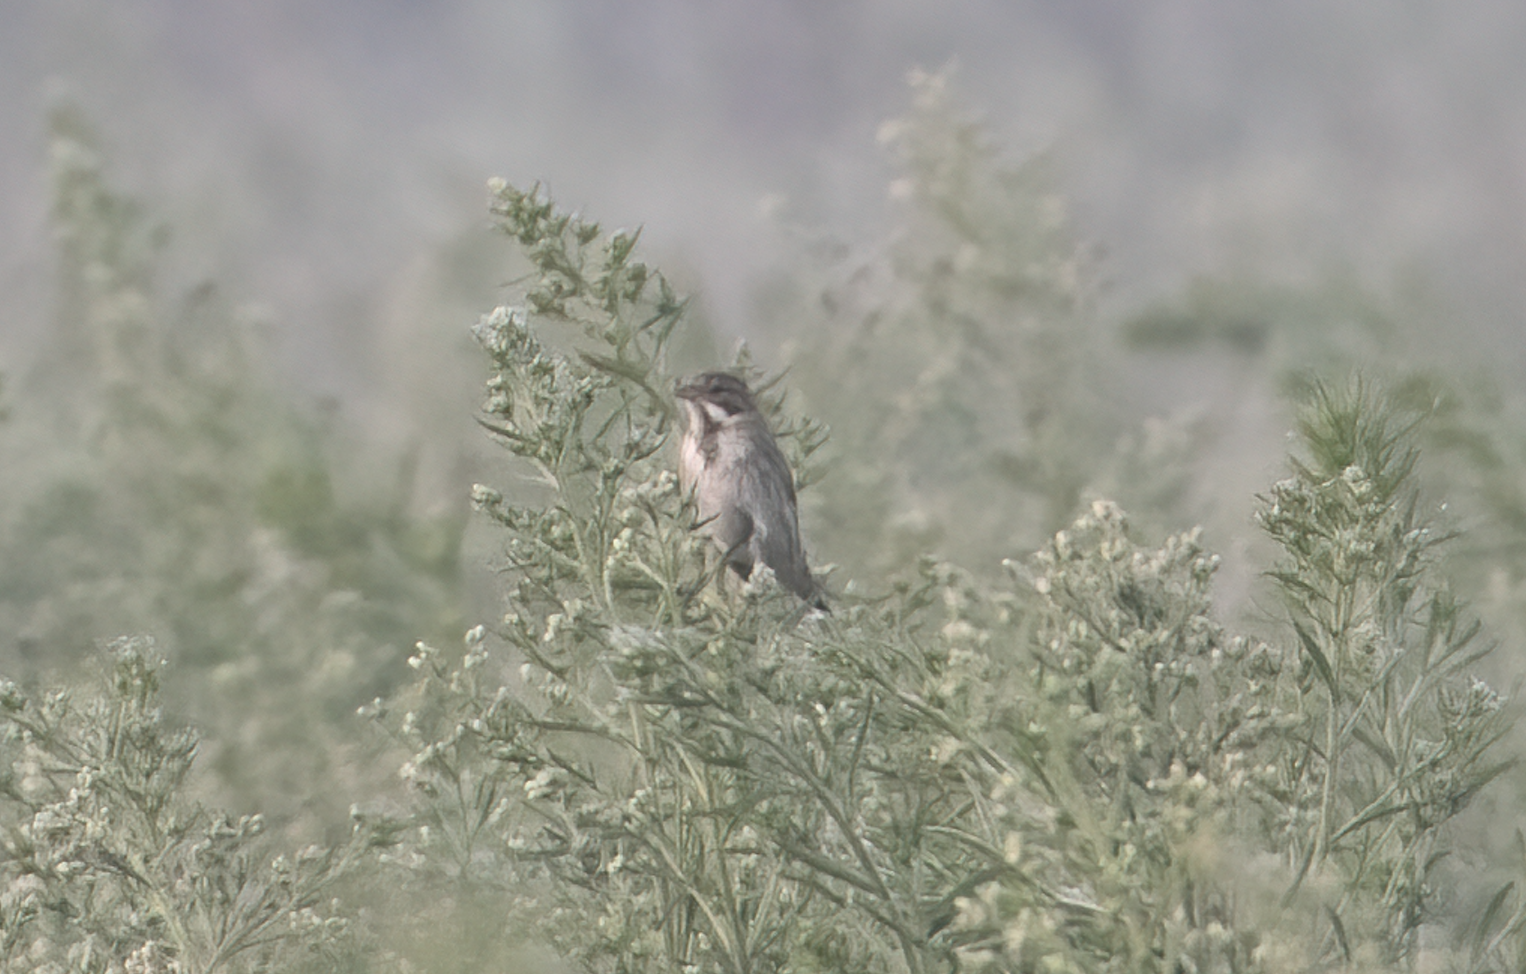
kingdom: Animalia
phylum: Chordata
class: Aves
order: Passeriformes
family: Emberizidae
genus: Emberiza
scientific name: Emberiza schoeniclus
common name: Reed bunting
